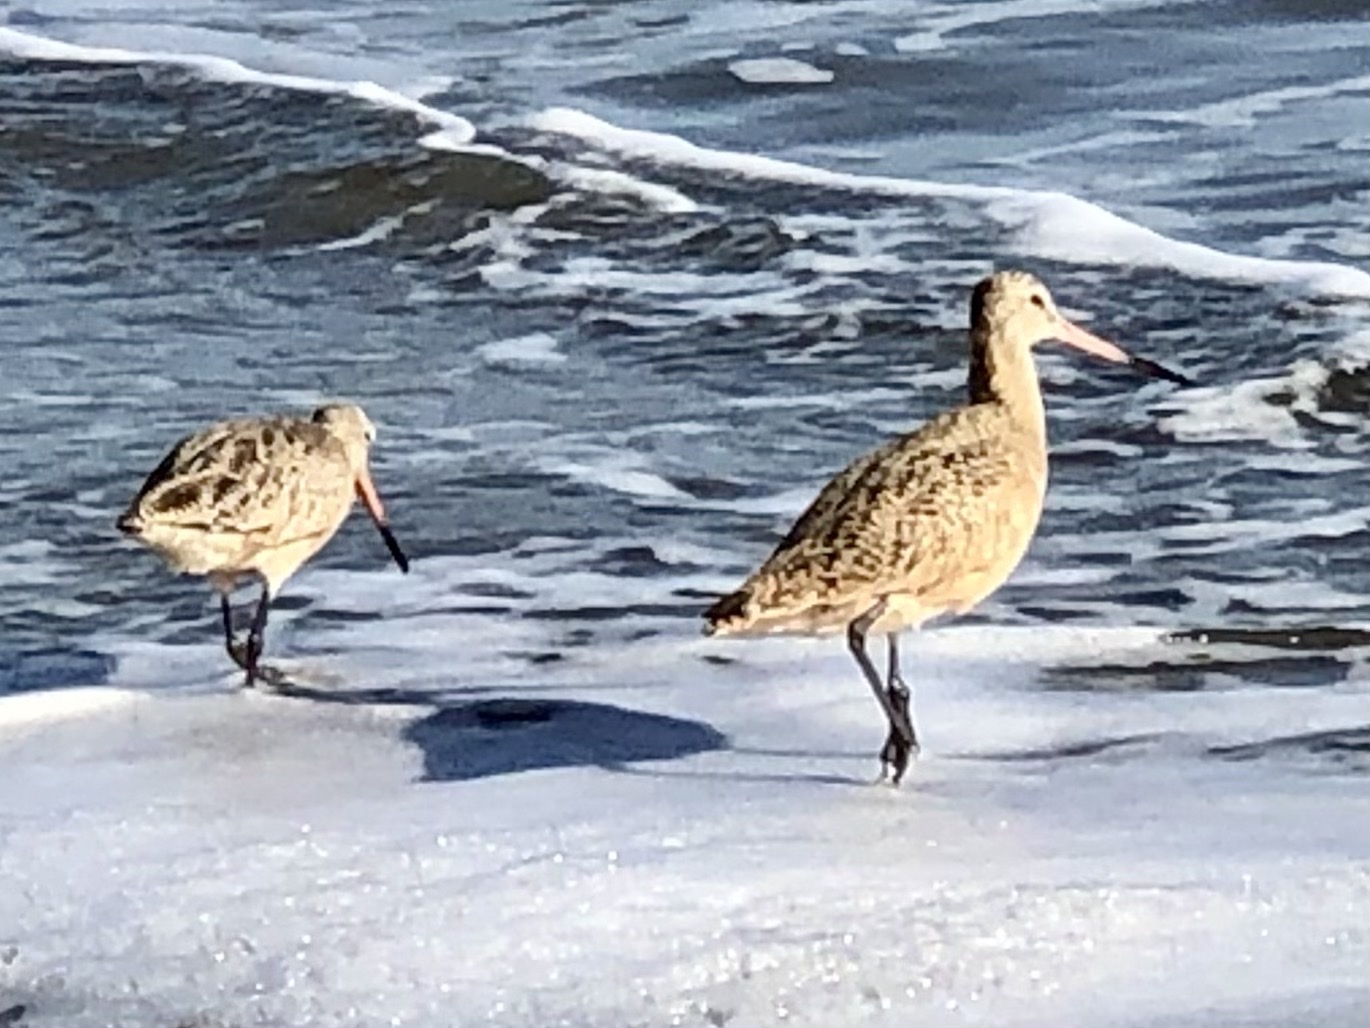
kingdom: Animalia
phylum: Chordata
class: Aves
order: Charadriiformes
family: Scolopacidae
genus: Limosa
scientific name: Limosa fedoa
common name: Marbled godwit
